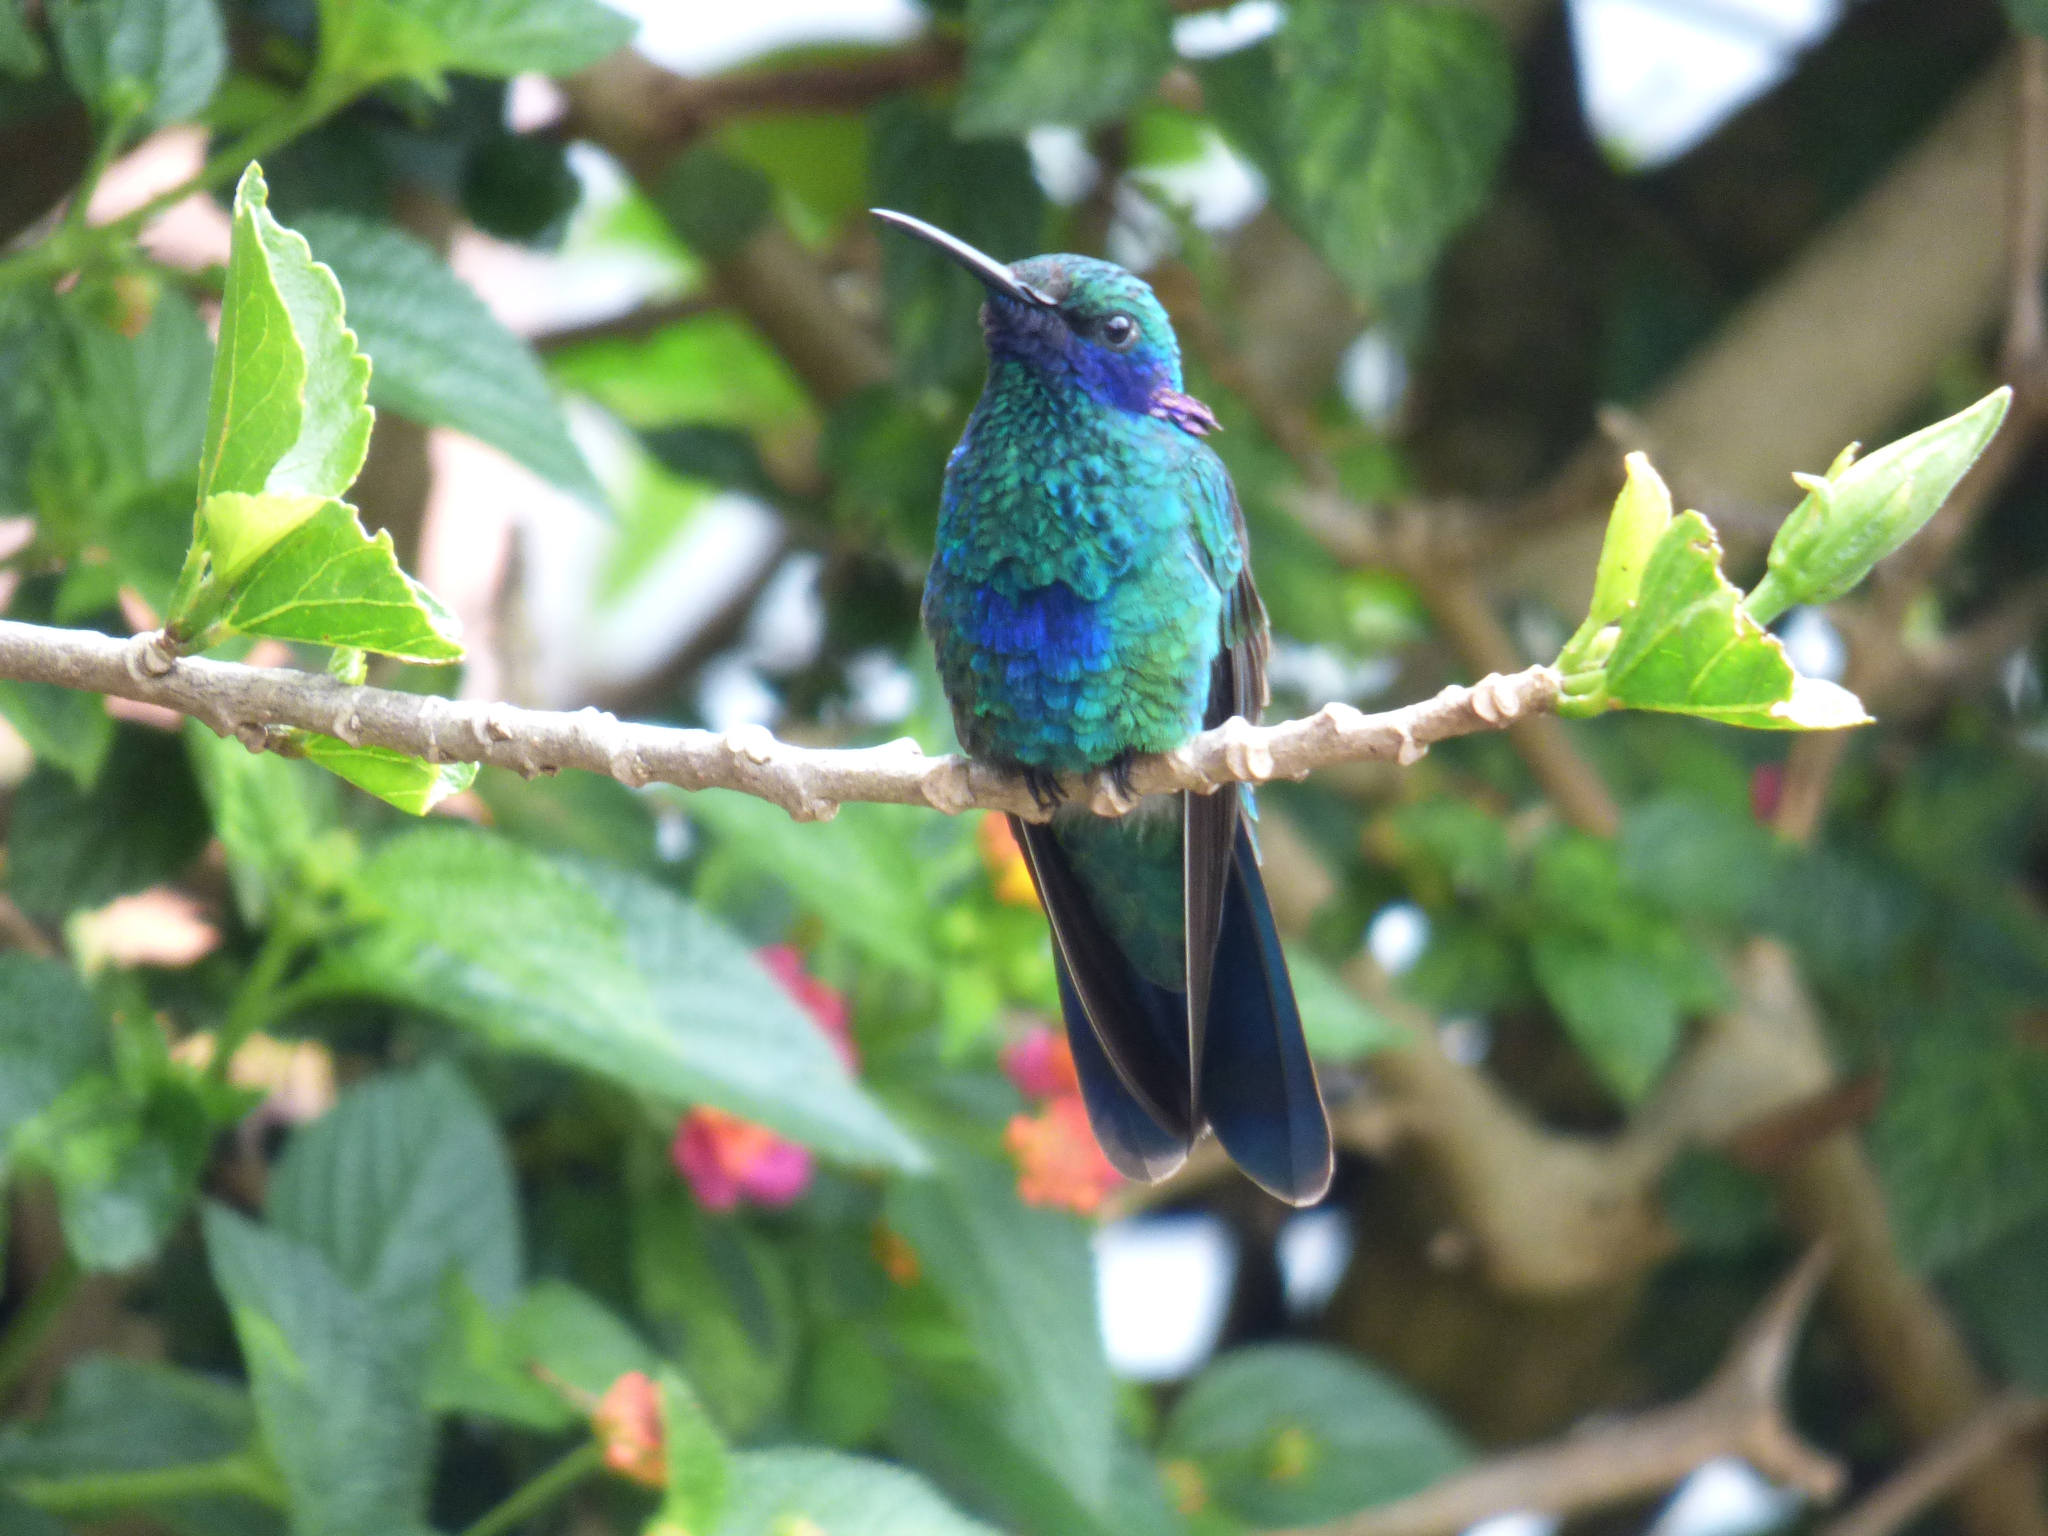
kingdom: Animalia
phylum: Chordata
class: Aves
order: Apodiformes
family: Trochilidae
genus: Colibri
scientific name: Colibri coruscans
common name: Sparkling violetear
